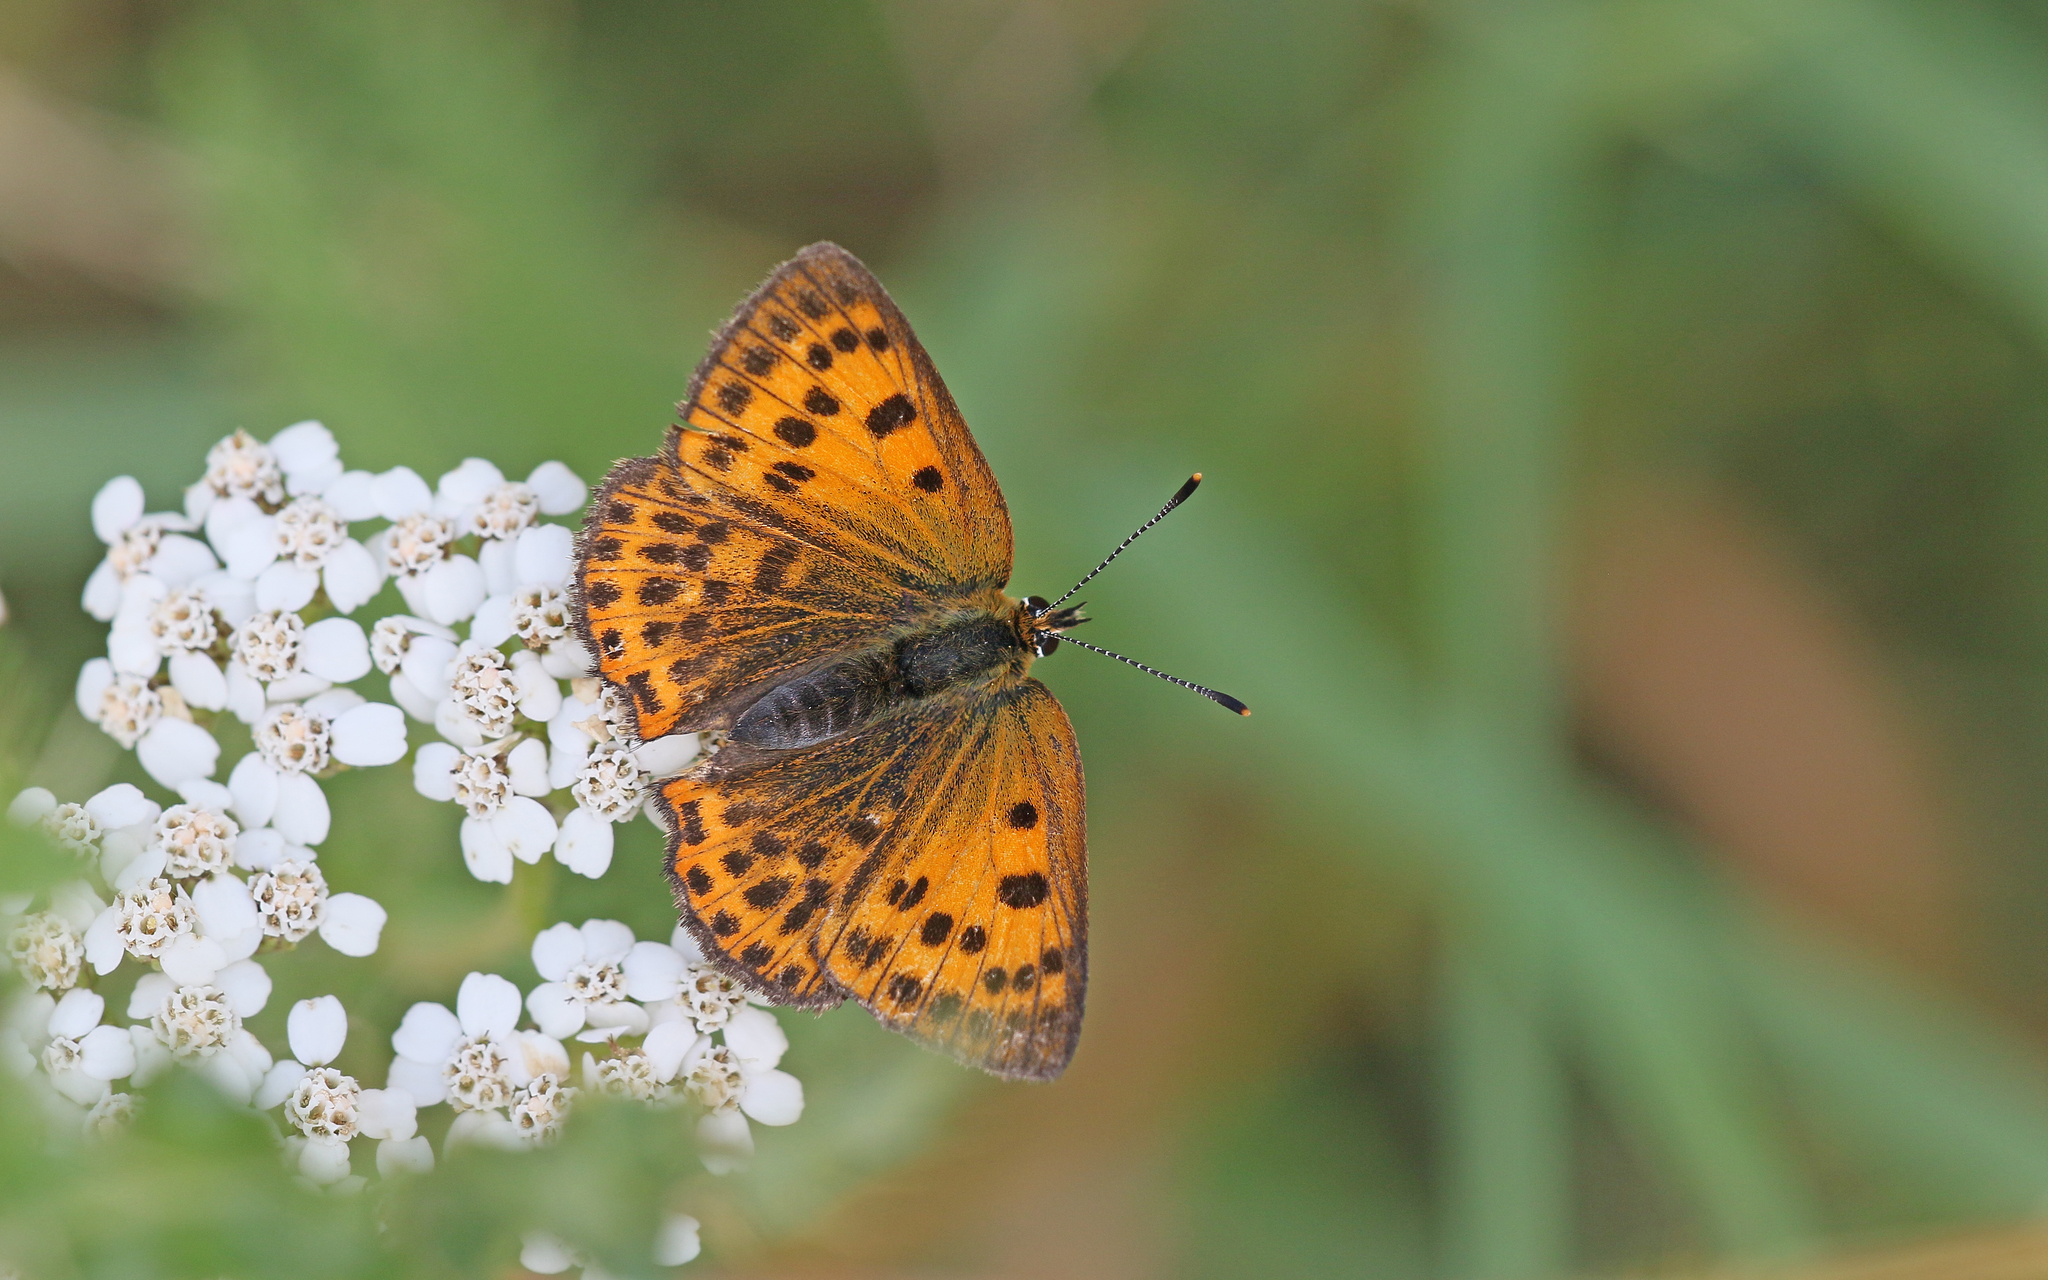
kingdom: Animalia
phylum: Arthropoda
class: Insecta
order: Lepidoptera
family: Lycaenidae
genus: Lycaena
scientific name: Lycaena virgaureae
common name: Scarce copper
